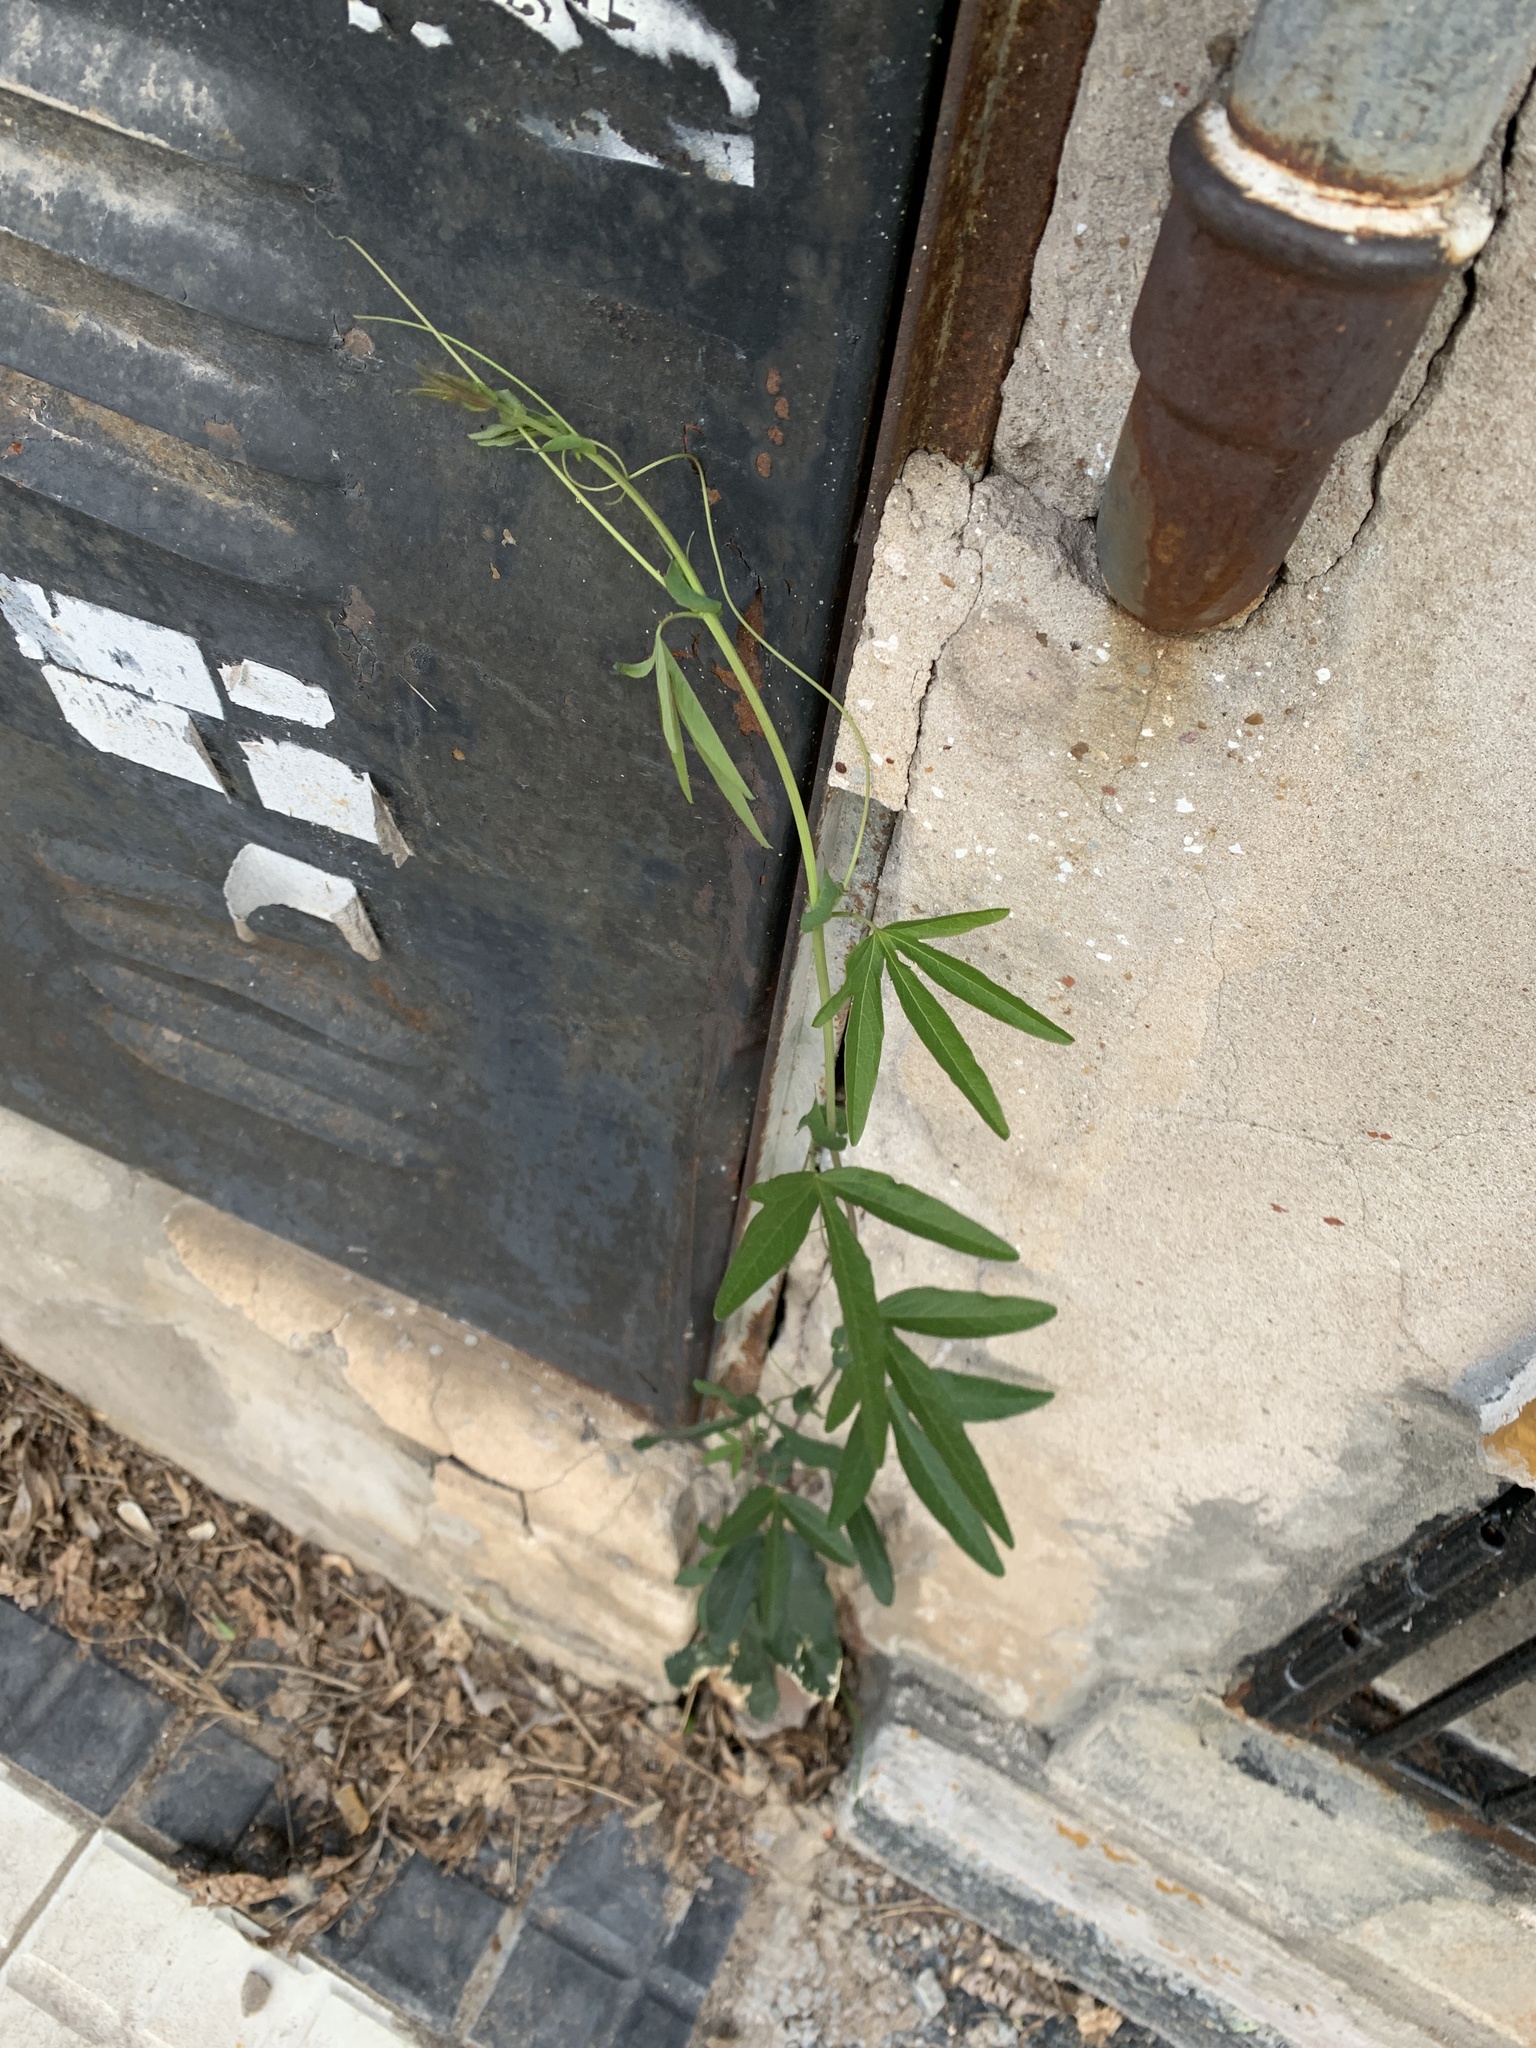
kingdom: Plantae
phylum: Tracheophyta
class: Magnoliopsida
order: Malpighiales
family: Passifloraceae
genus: Passiflora
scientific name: Passiflora caerulea
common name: Blue passionflower
